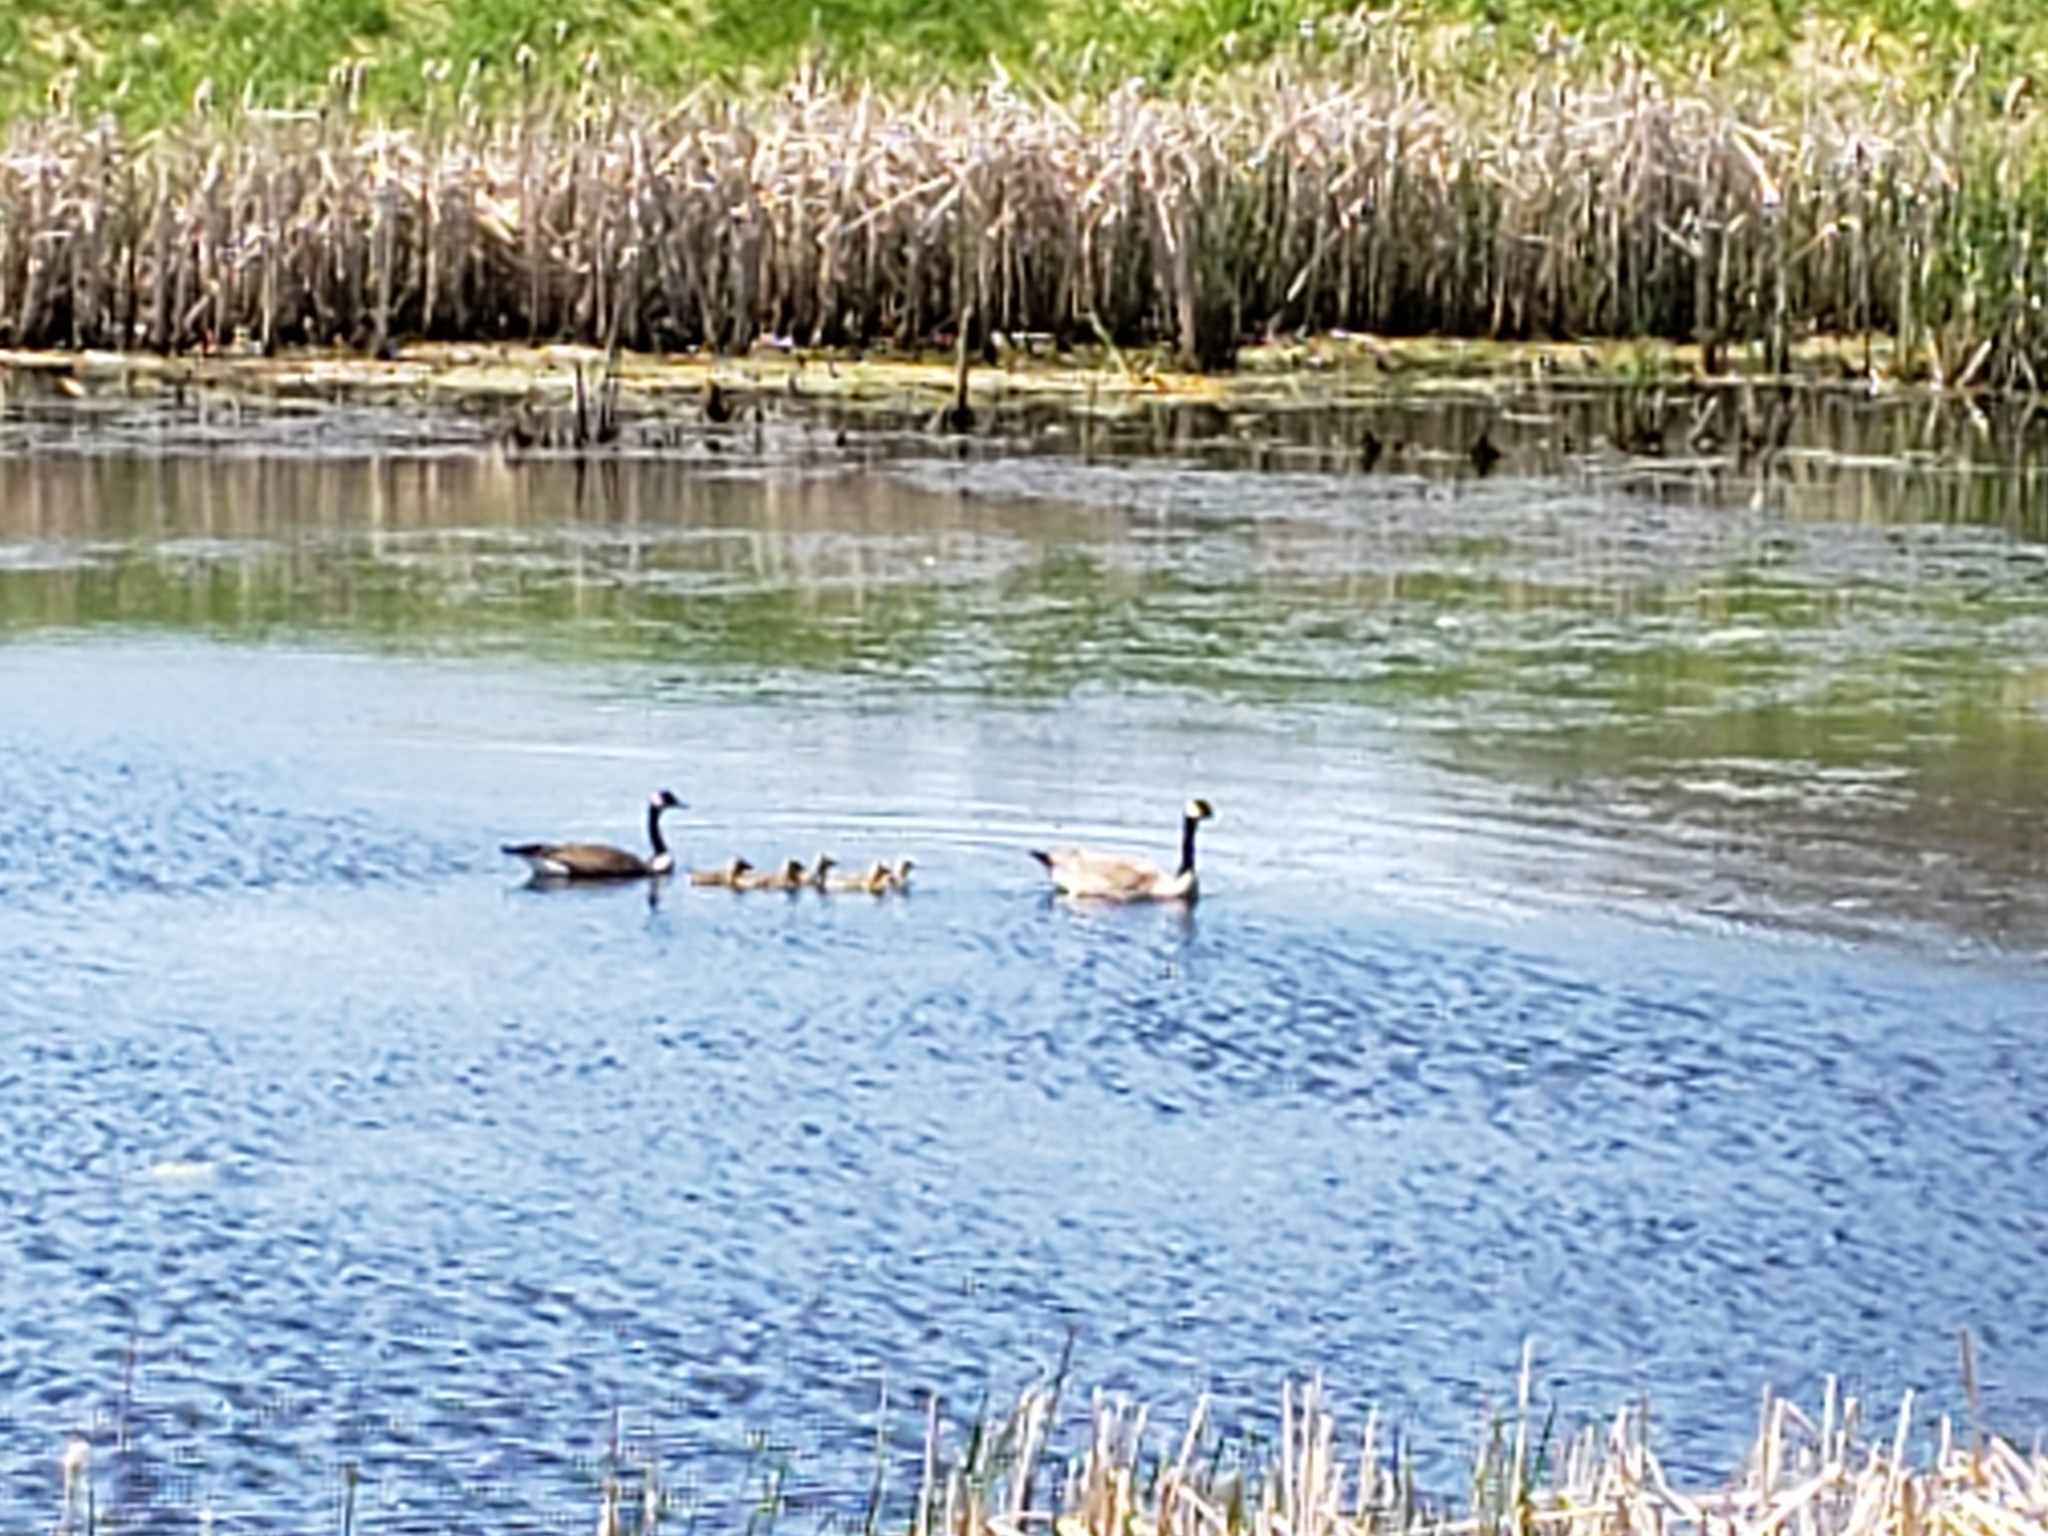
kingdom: Animalia
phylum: Chordata
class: Aves
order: Anseriformes
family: Anatidae
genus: Branta
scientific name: Branta canadensis
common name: Canada goose
